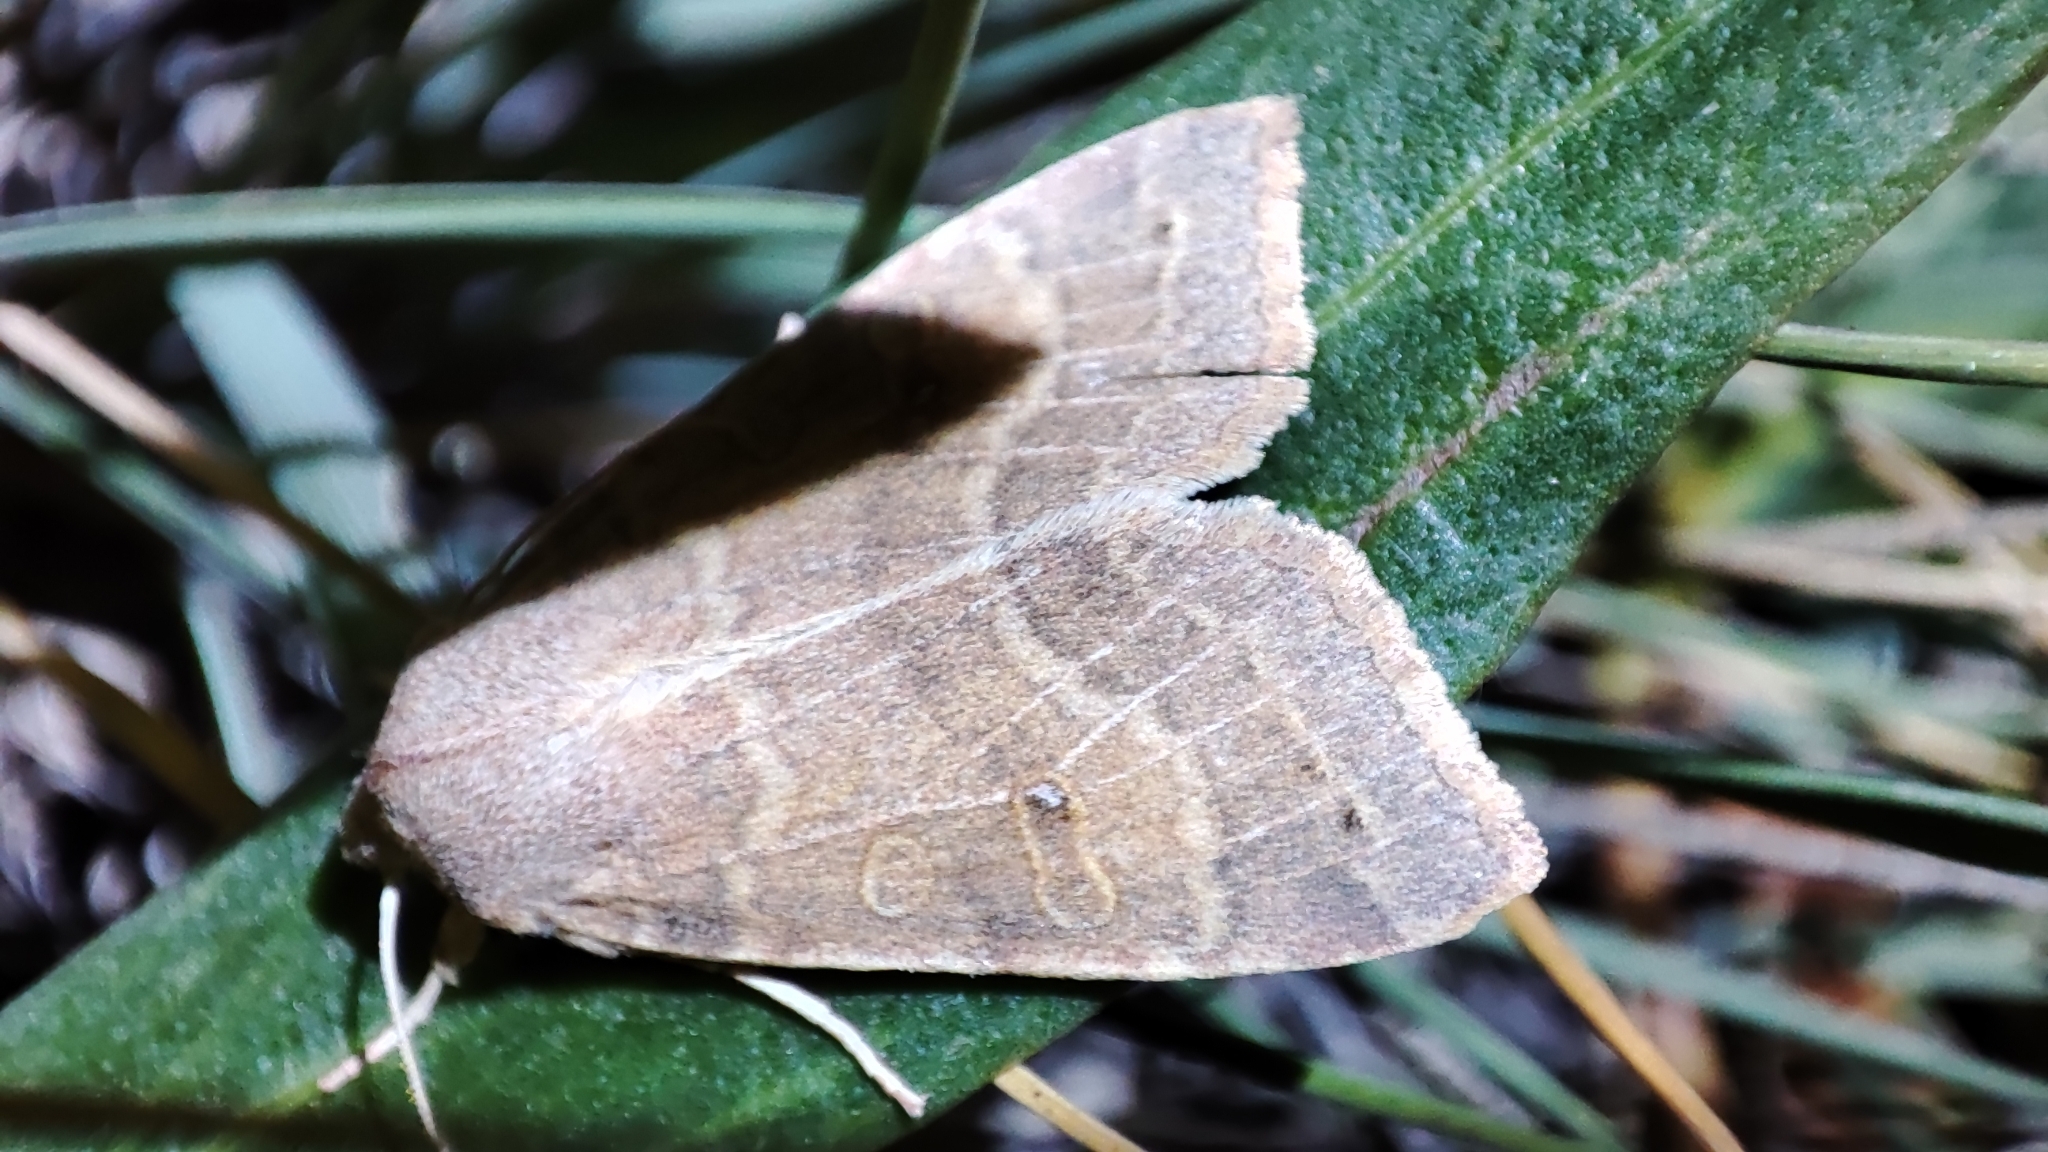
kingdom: Animalia
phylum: Arthropoda
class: Insecta
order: Lepidoptera
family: Noctuidae
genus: Xanthia
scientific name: Xanthia ocellaris
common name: Pale-lemon sallow
